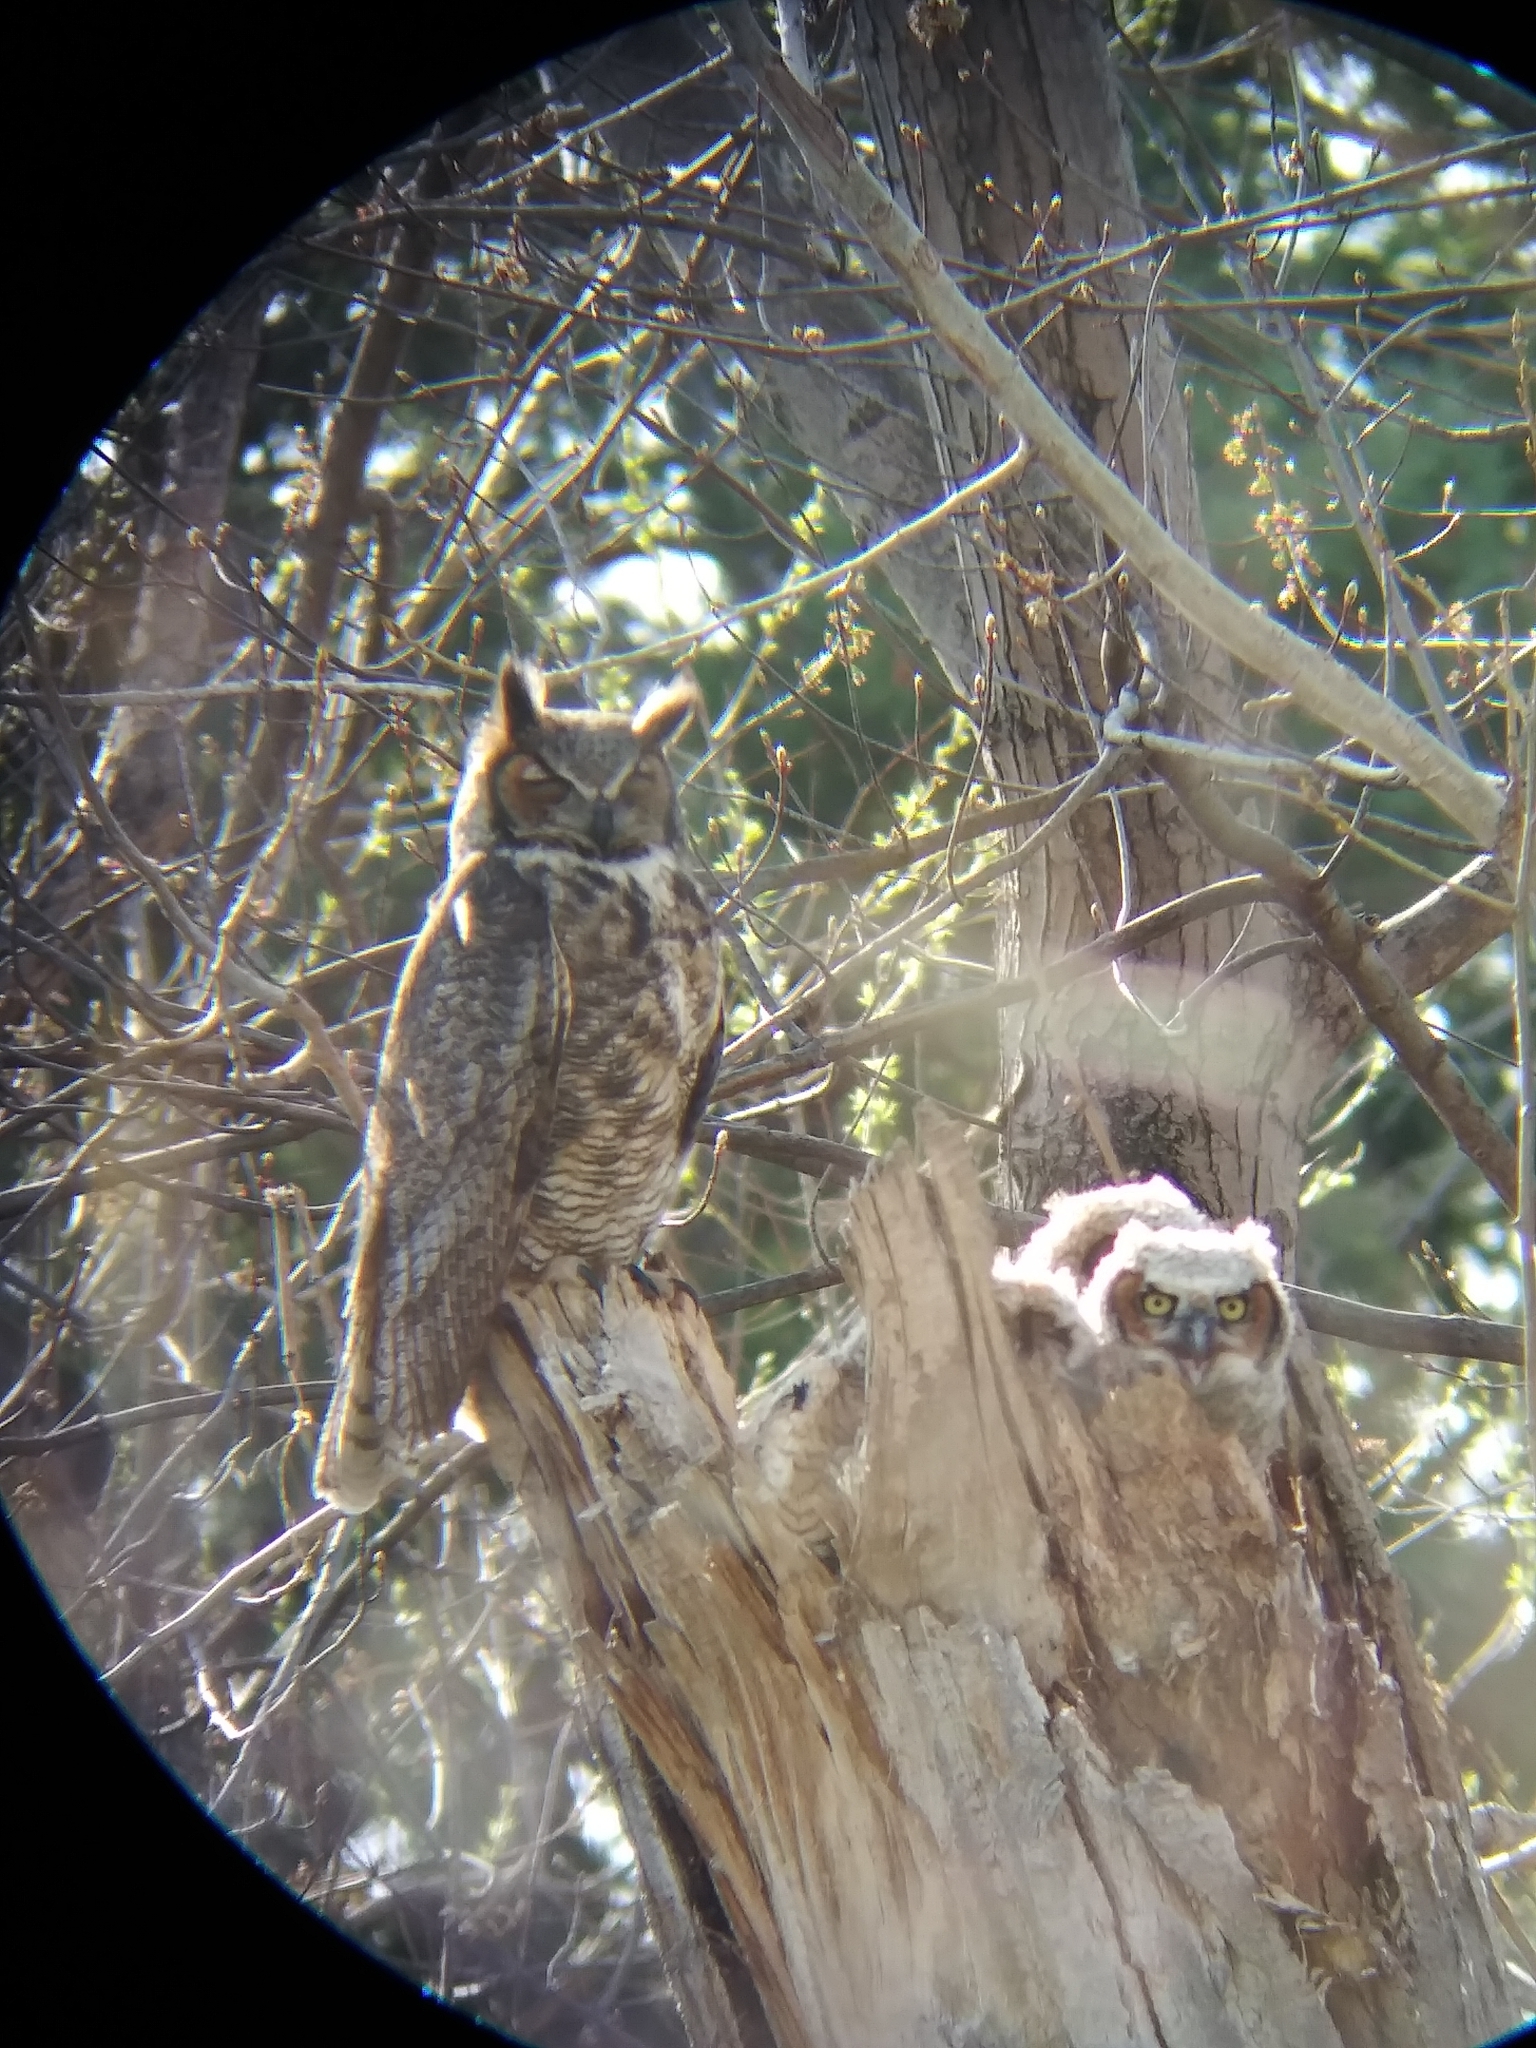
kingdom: Animalia
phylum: Chordata
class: Aves
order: Strigiformes
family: Strigidae
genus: Bubo
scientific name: Bubo virginianus
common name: Great horned owl
